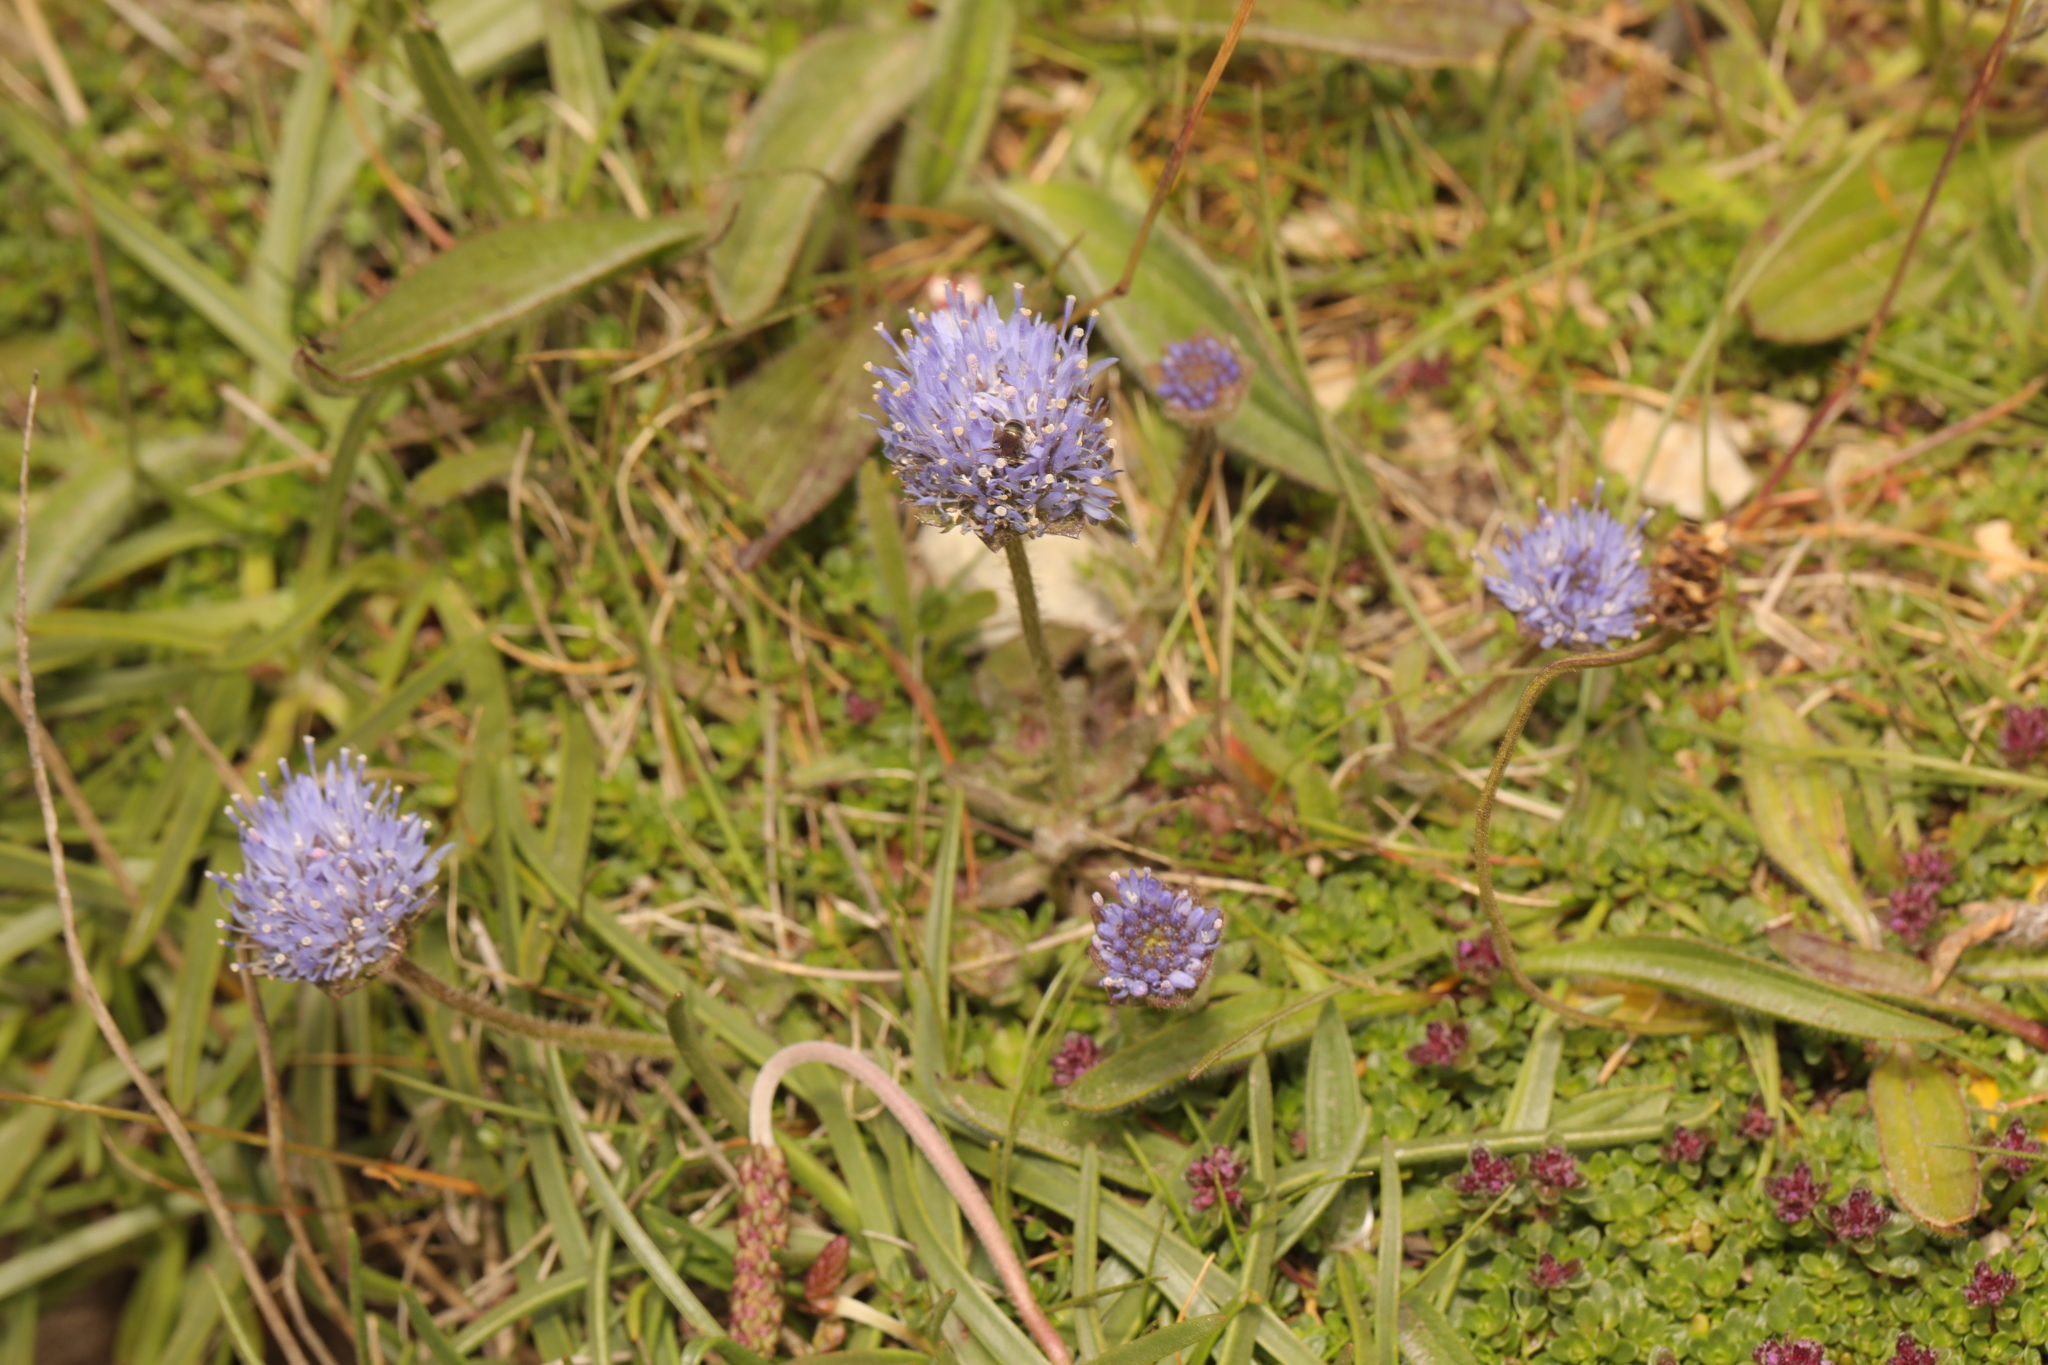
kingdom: Plantae
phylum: Tracheophyta
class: Magnoliopsida
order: Asterales
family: Campanulaceae
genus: Jasione
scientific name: Jasione montana
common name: Sheep's-bit
